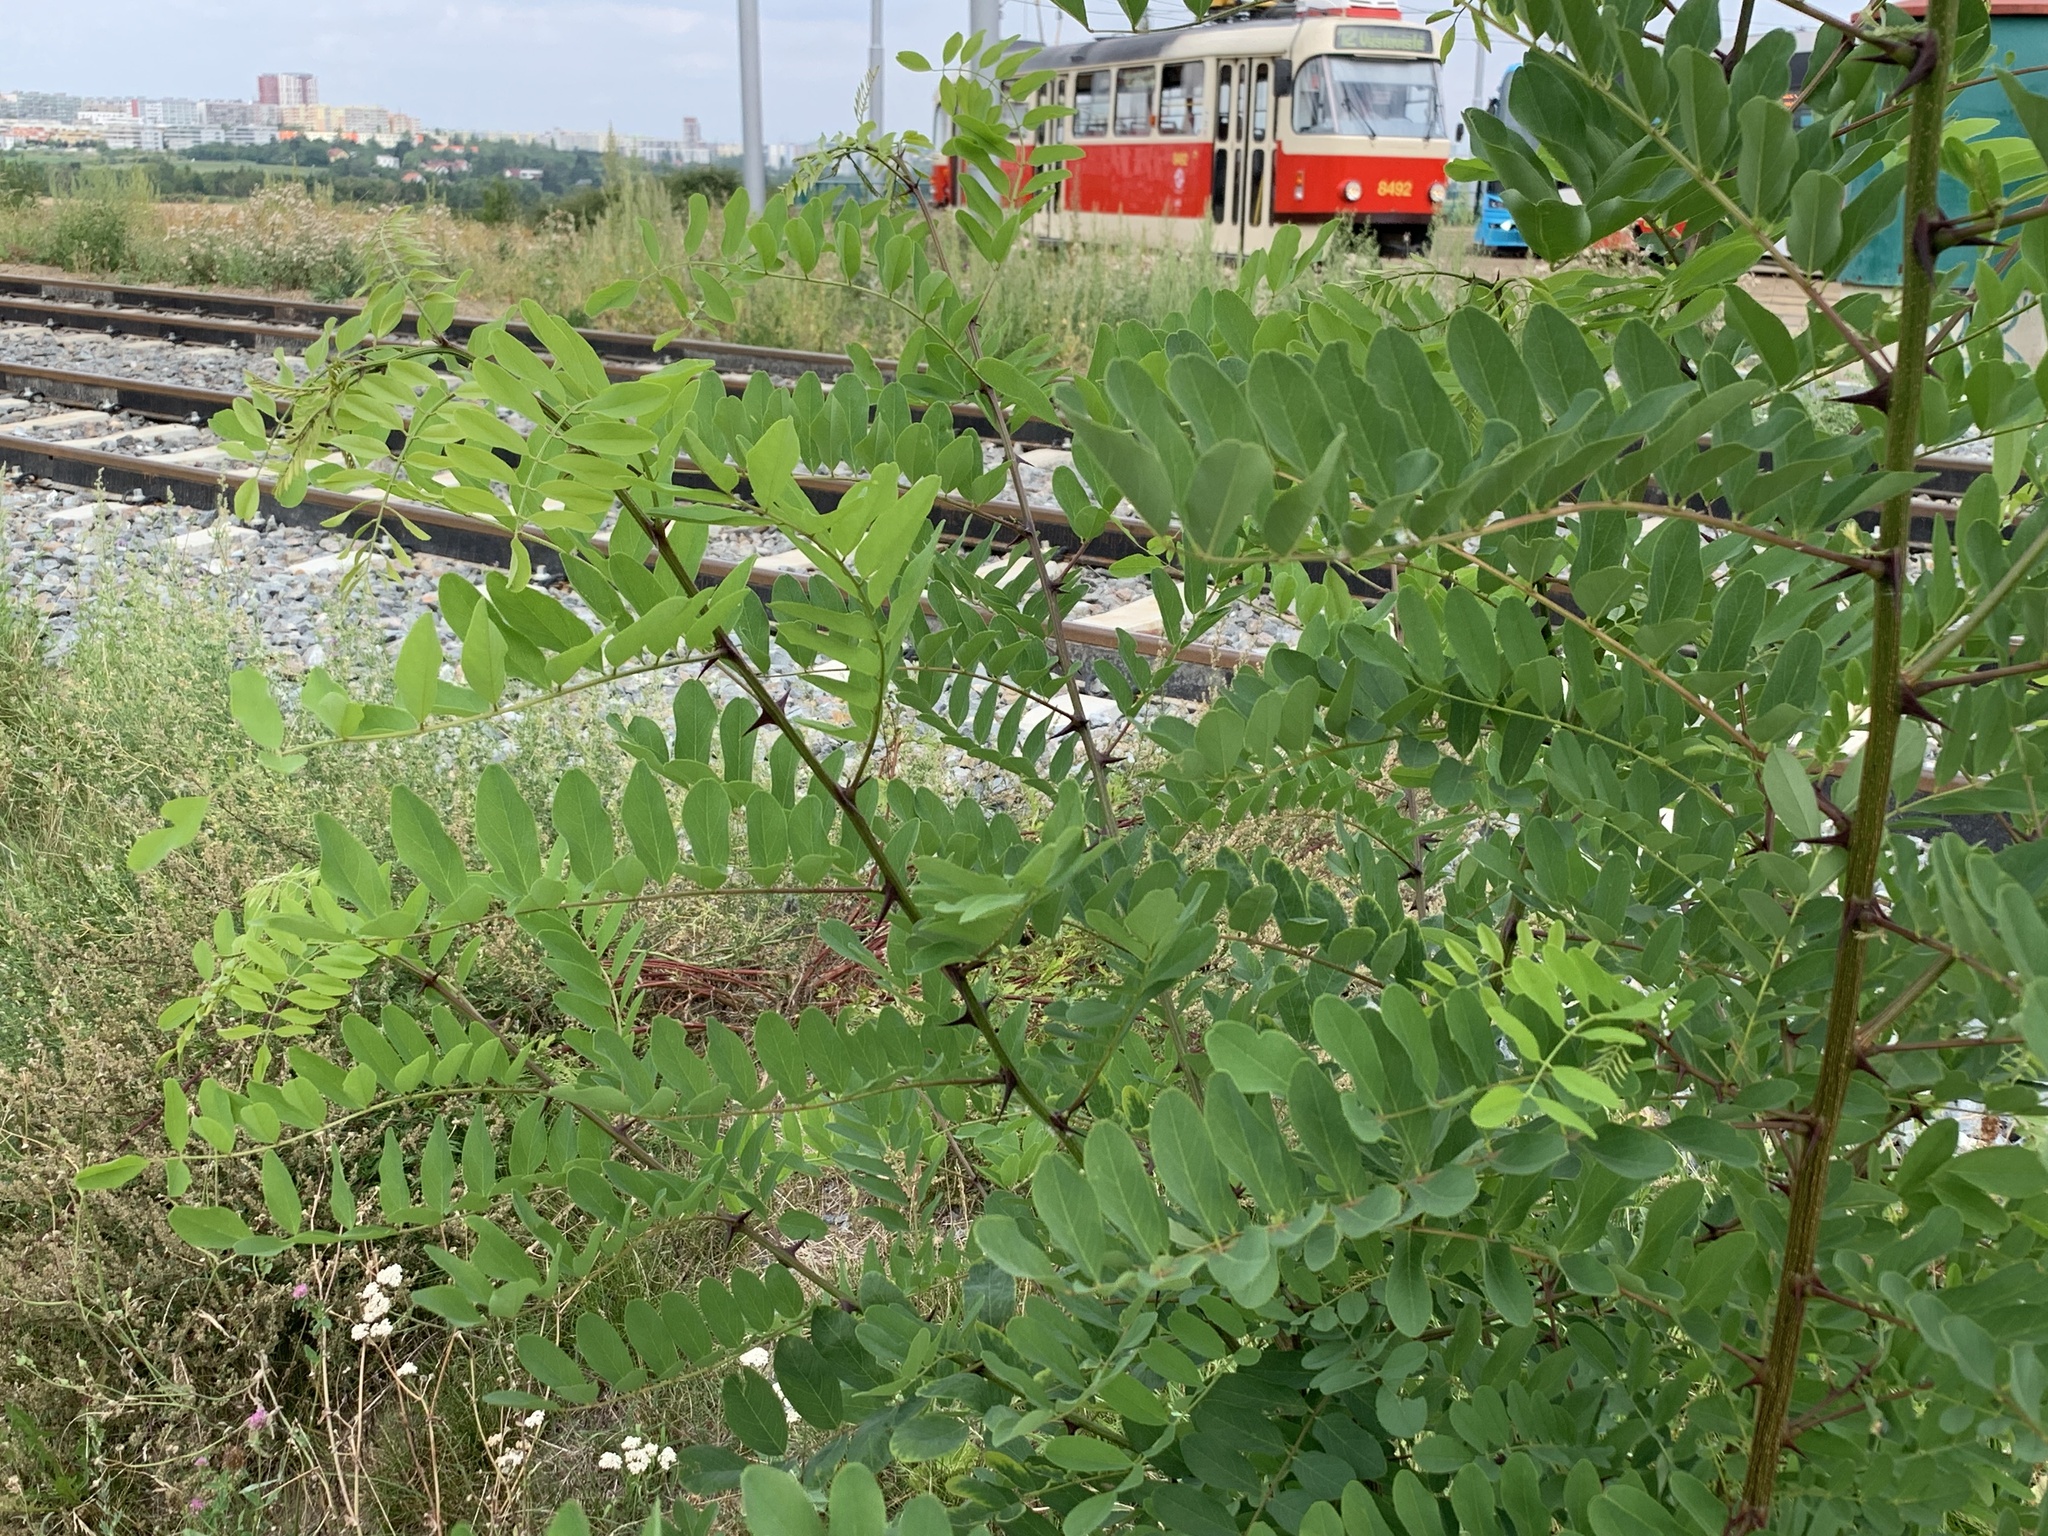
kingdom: Plantae
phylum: Tracheophyta
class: Magnoliopsida
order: Fabales
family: Fabaceae
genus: Robinia
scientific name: Robinia pseudoacacia
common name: Black locust
